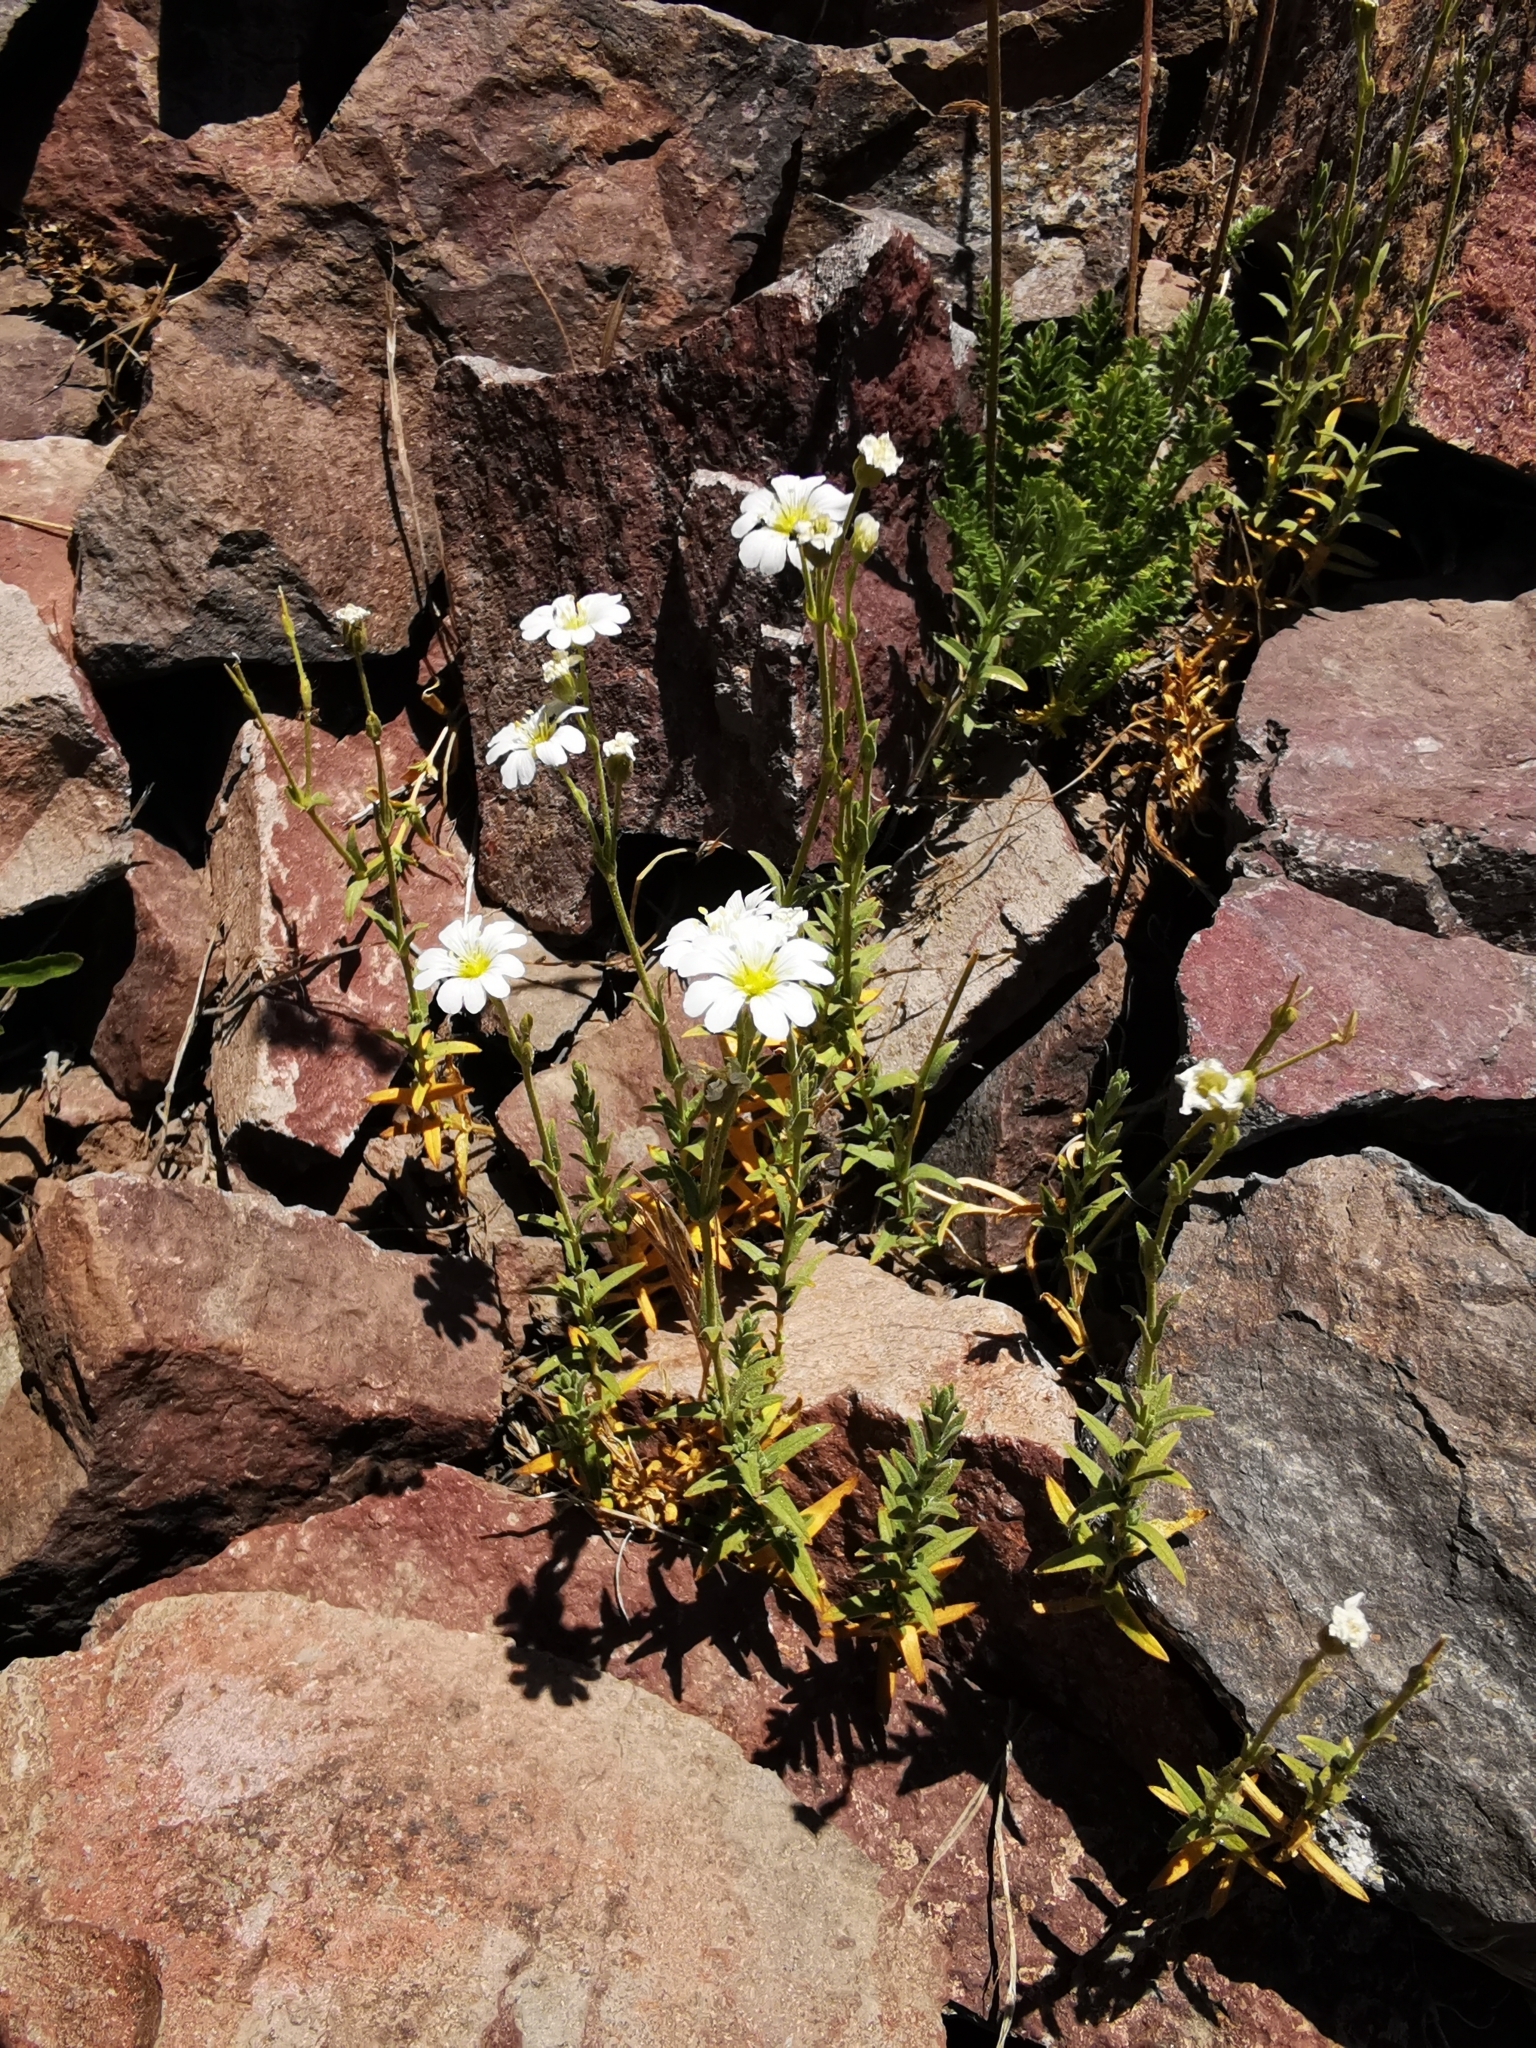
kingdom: Plantae
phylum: Tracheophyta
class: Magnoliopsida
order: Caryophyllales
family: Caryophyllaceae
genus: Cerastium
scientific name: Cerastium arvense
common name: Field mouse-ear
